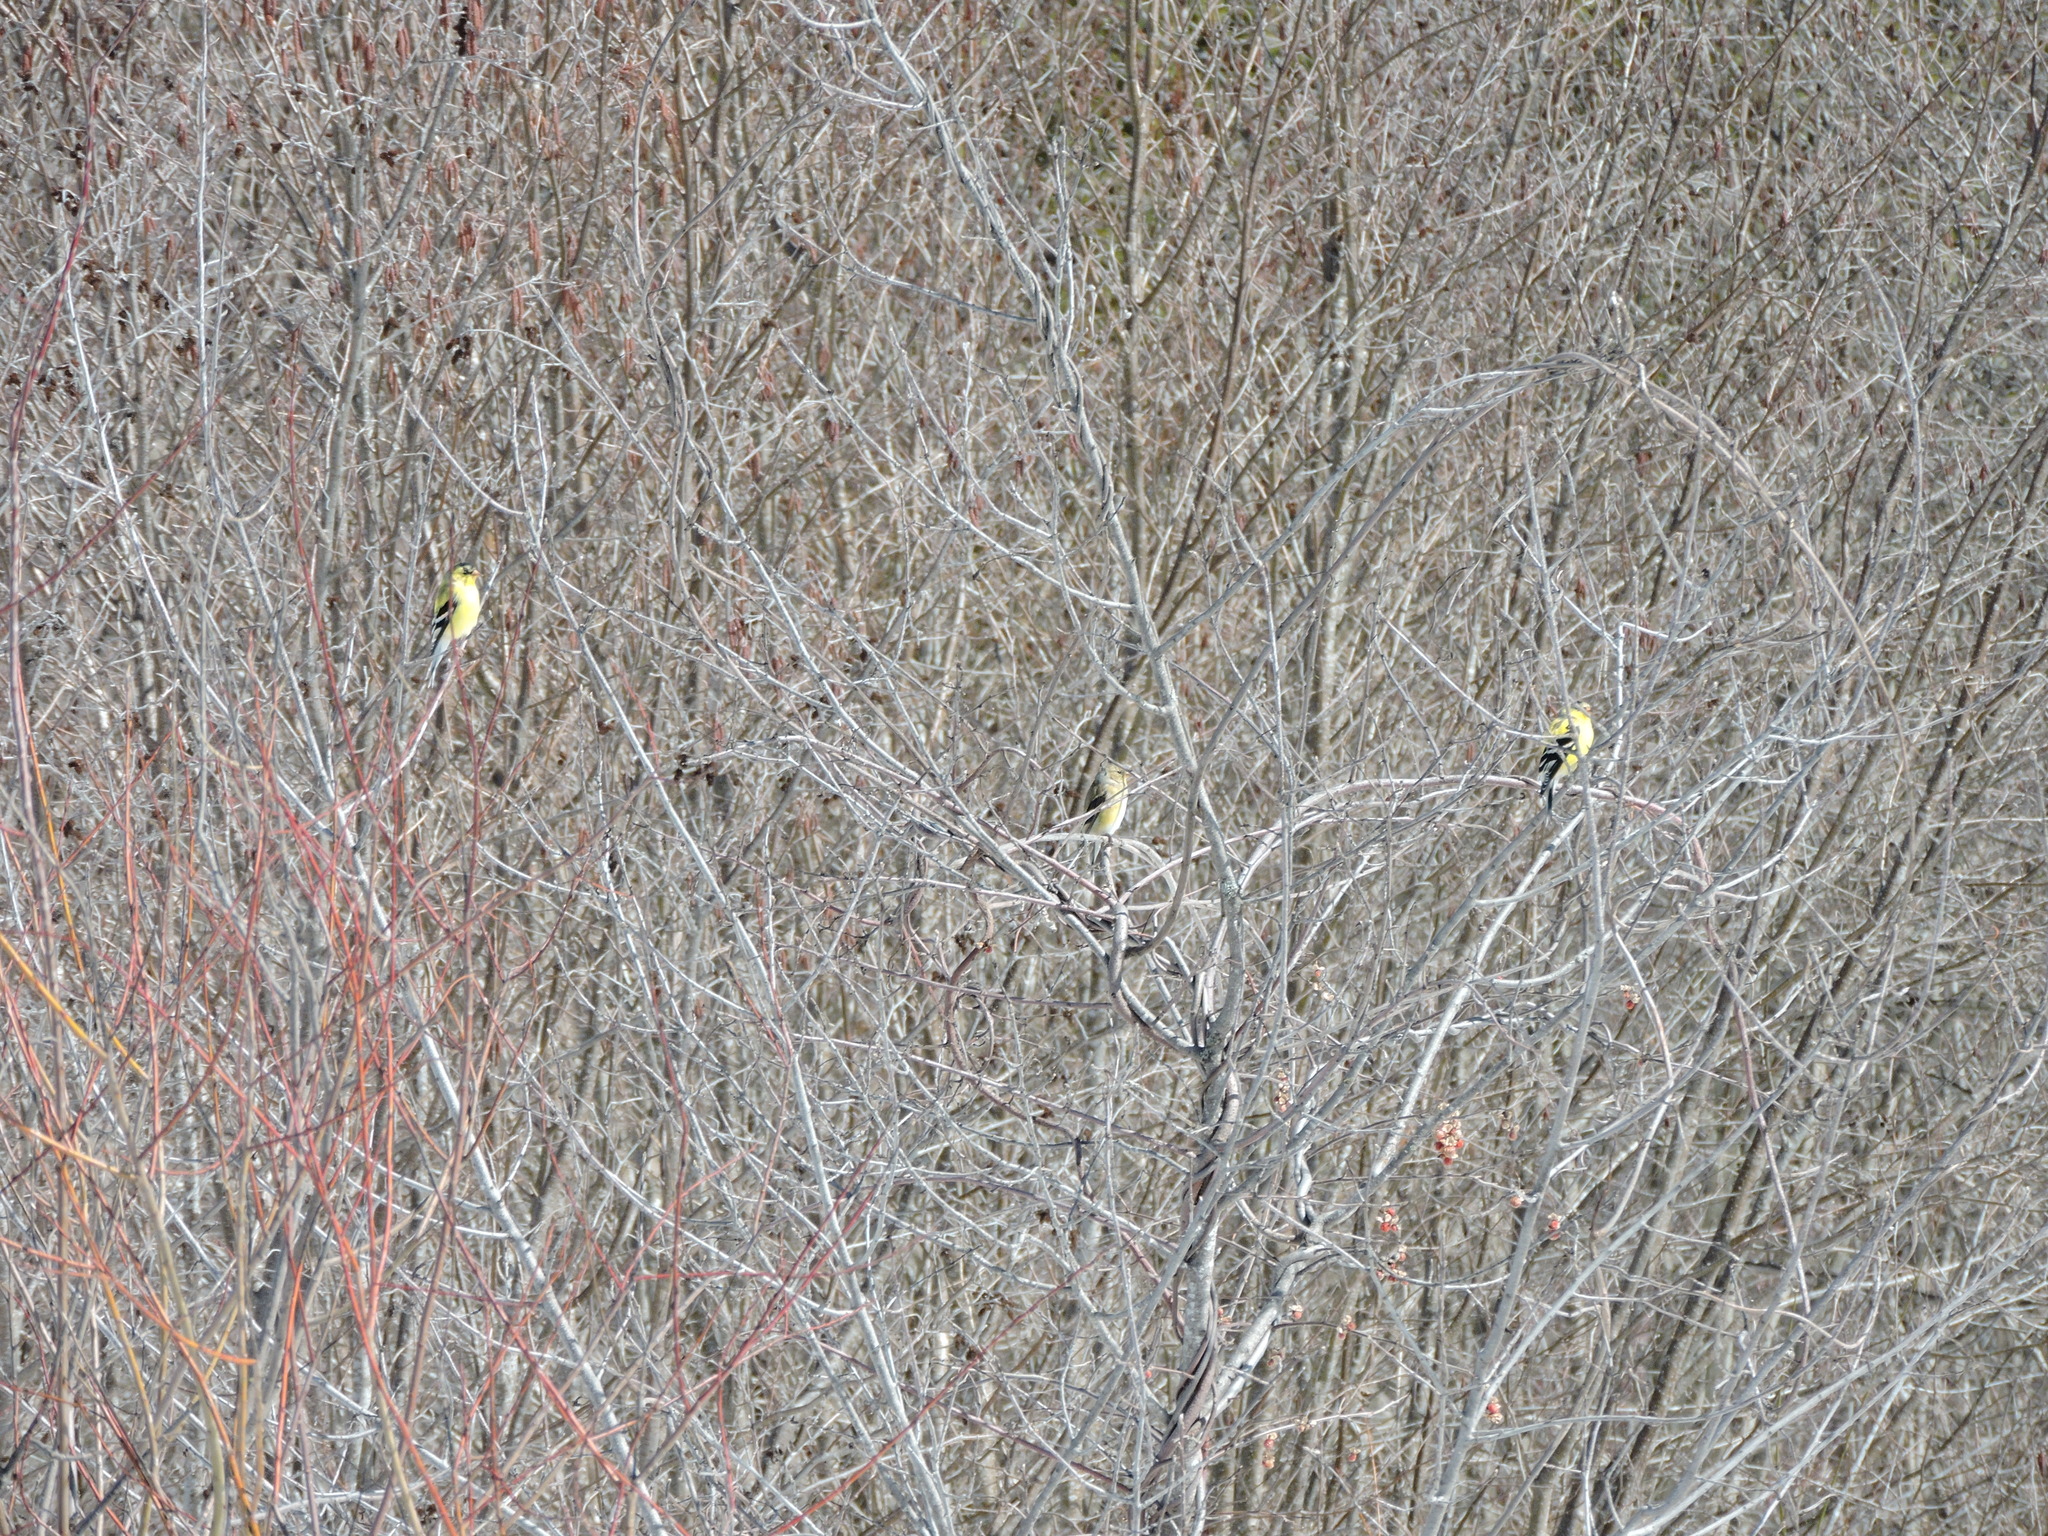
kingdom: Animalia
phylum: Chordata
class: Aves
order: Passeriformes
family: Fringillidae
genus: Spinus
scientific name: Spinus tristis
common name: American goldfinch
